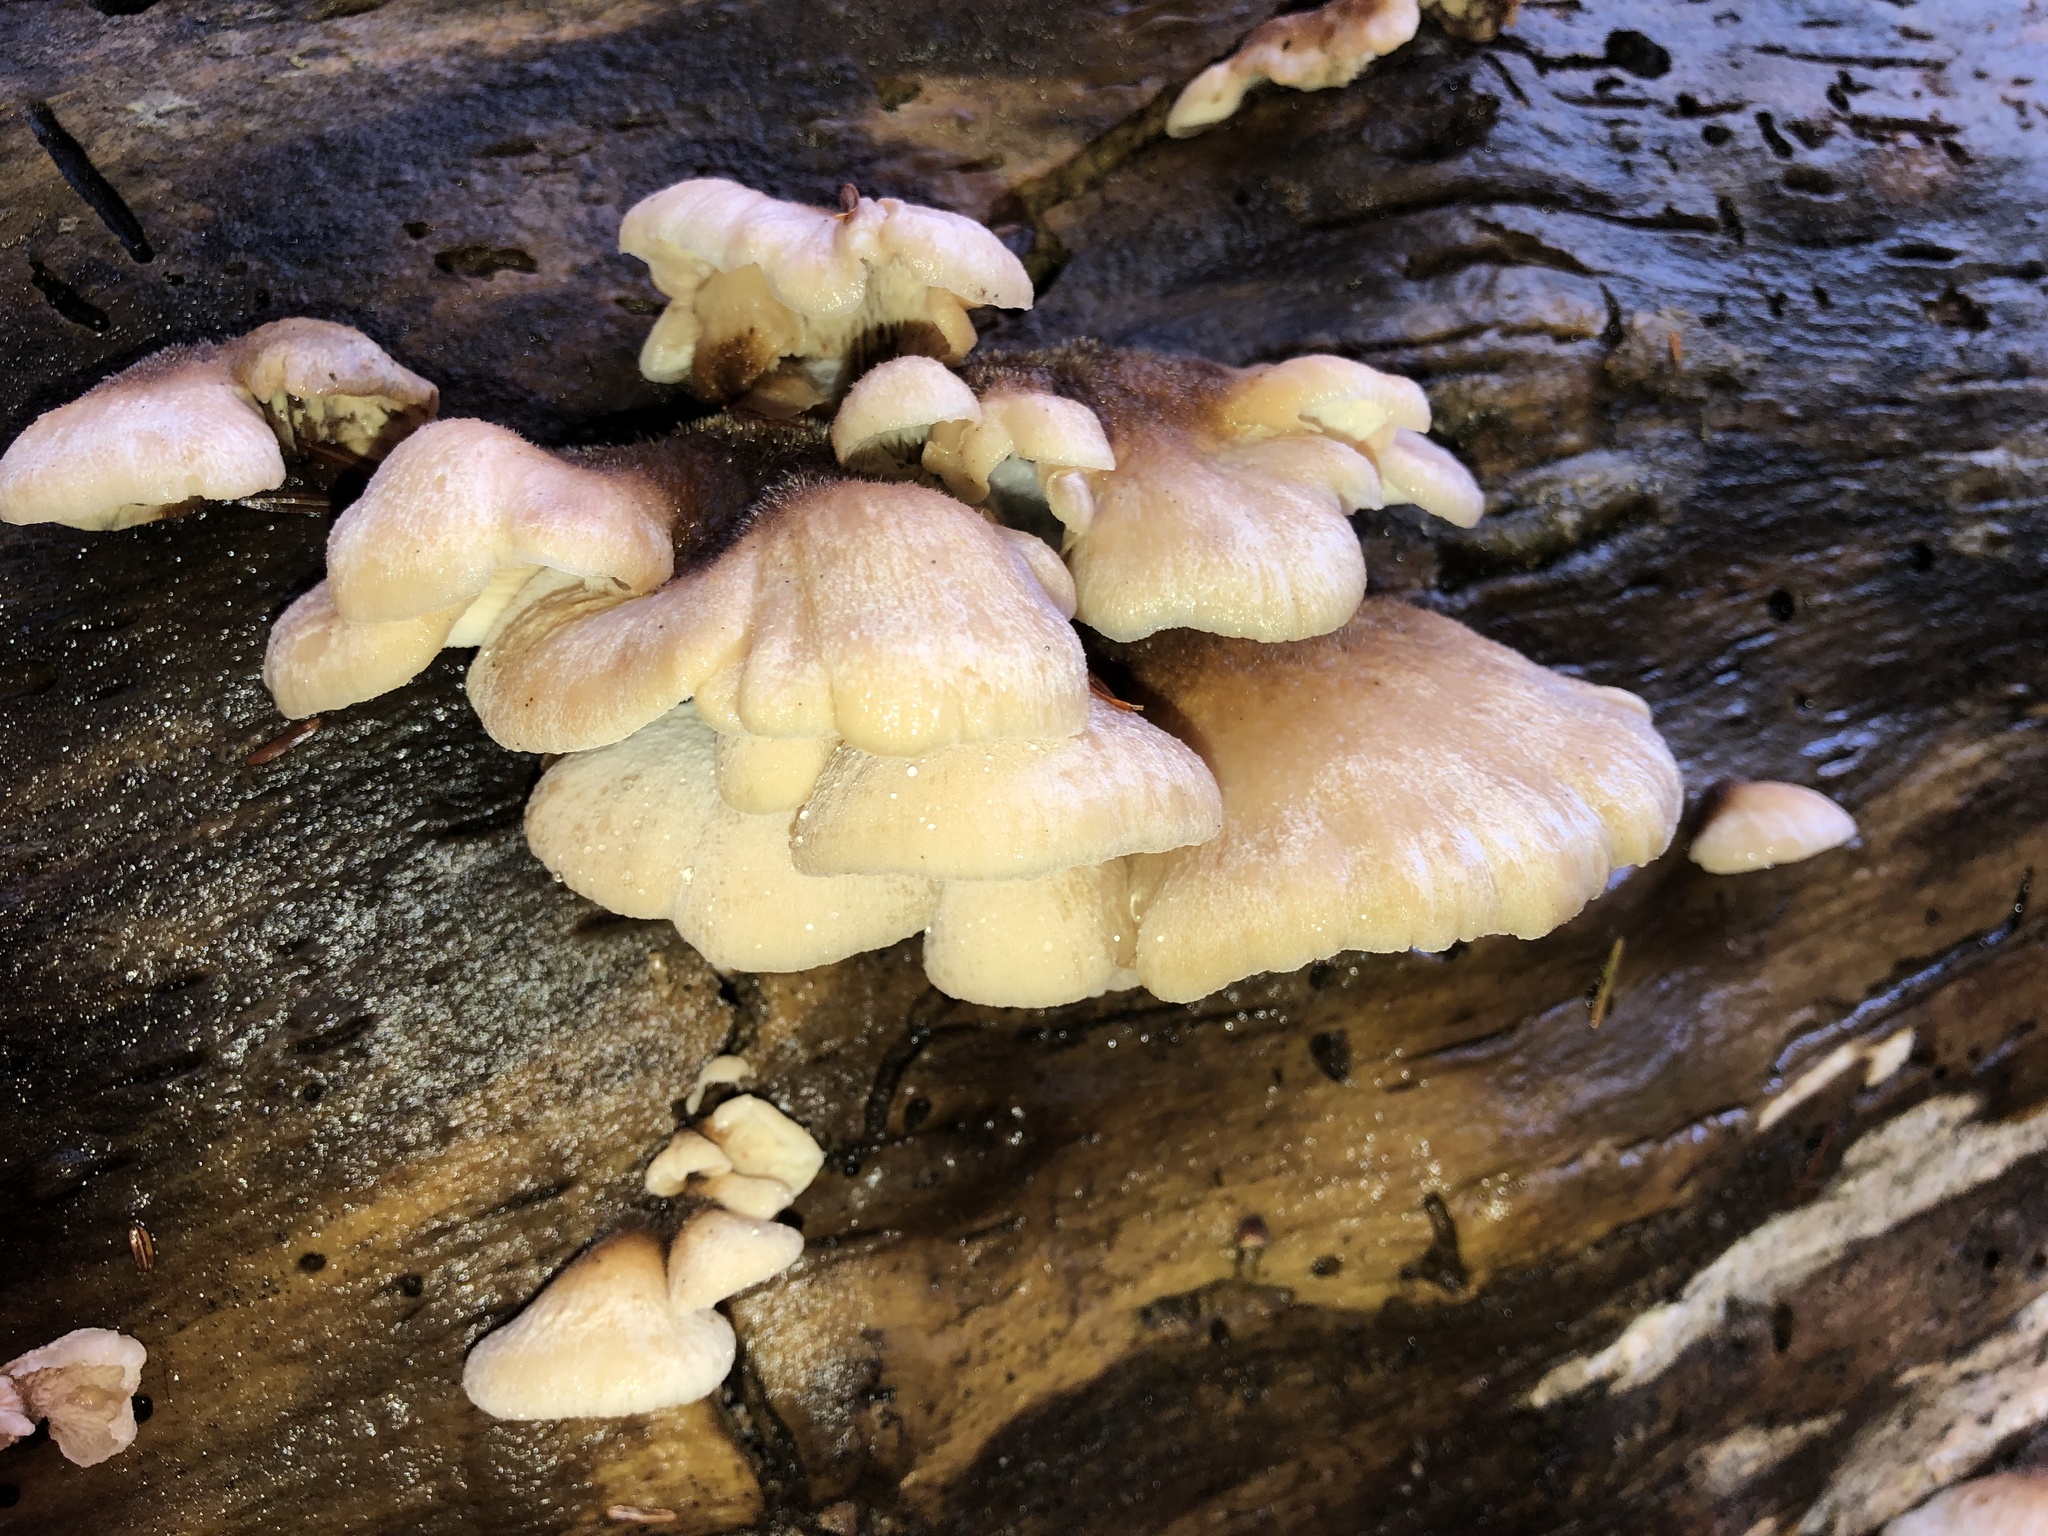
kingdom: Fungi
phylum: Basidiomycota
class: Agaricomycetes
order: Russulales
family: Auriscalpiaceae
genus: Lentinellus
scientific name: Lentinellus ursinus
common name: Bear lentinus
